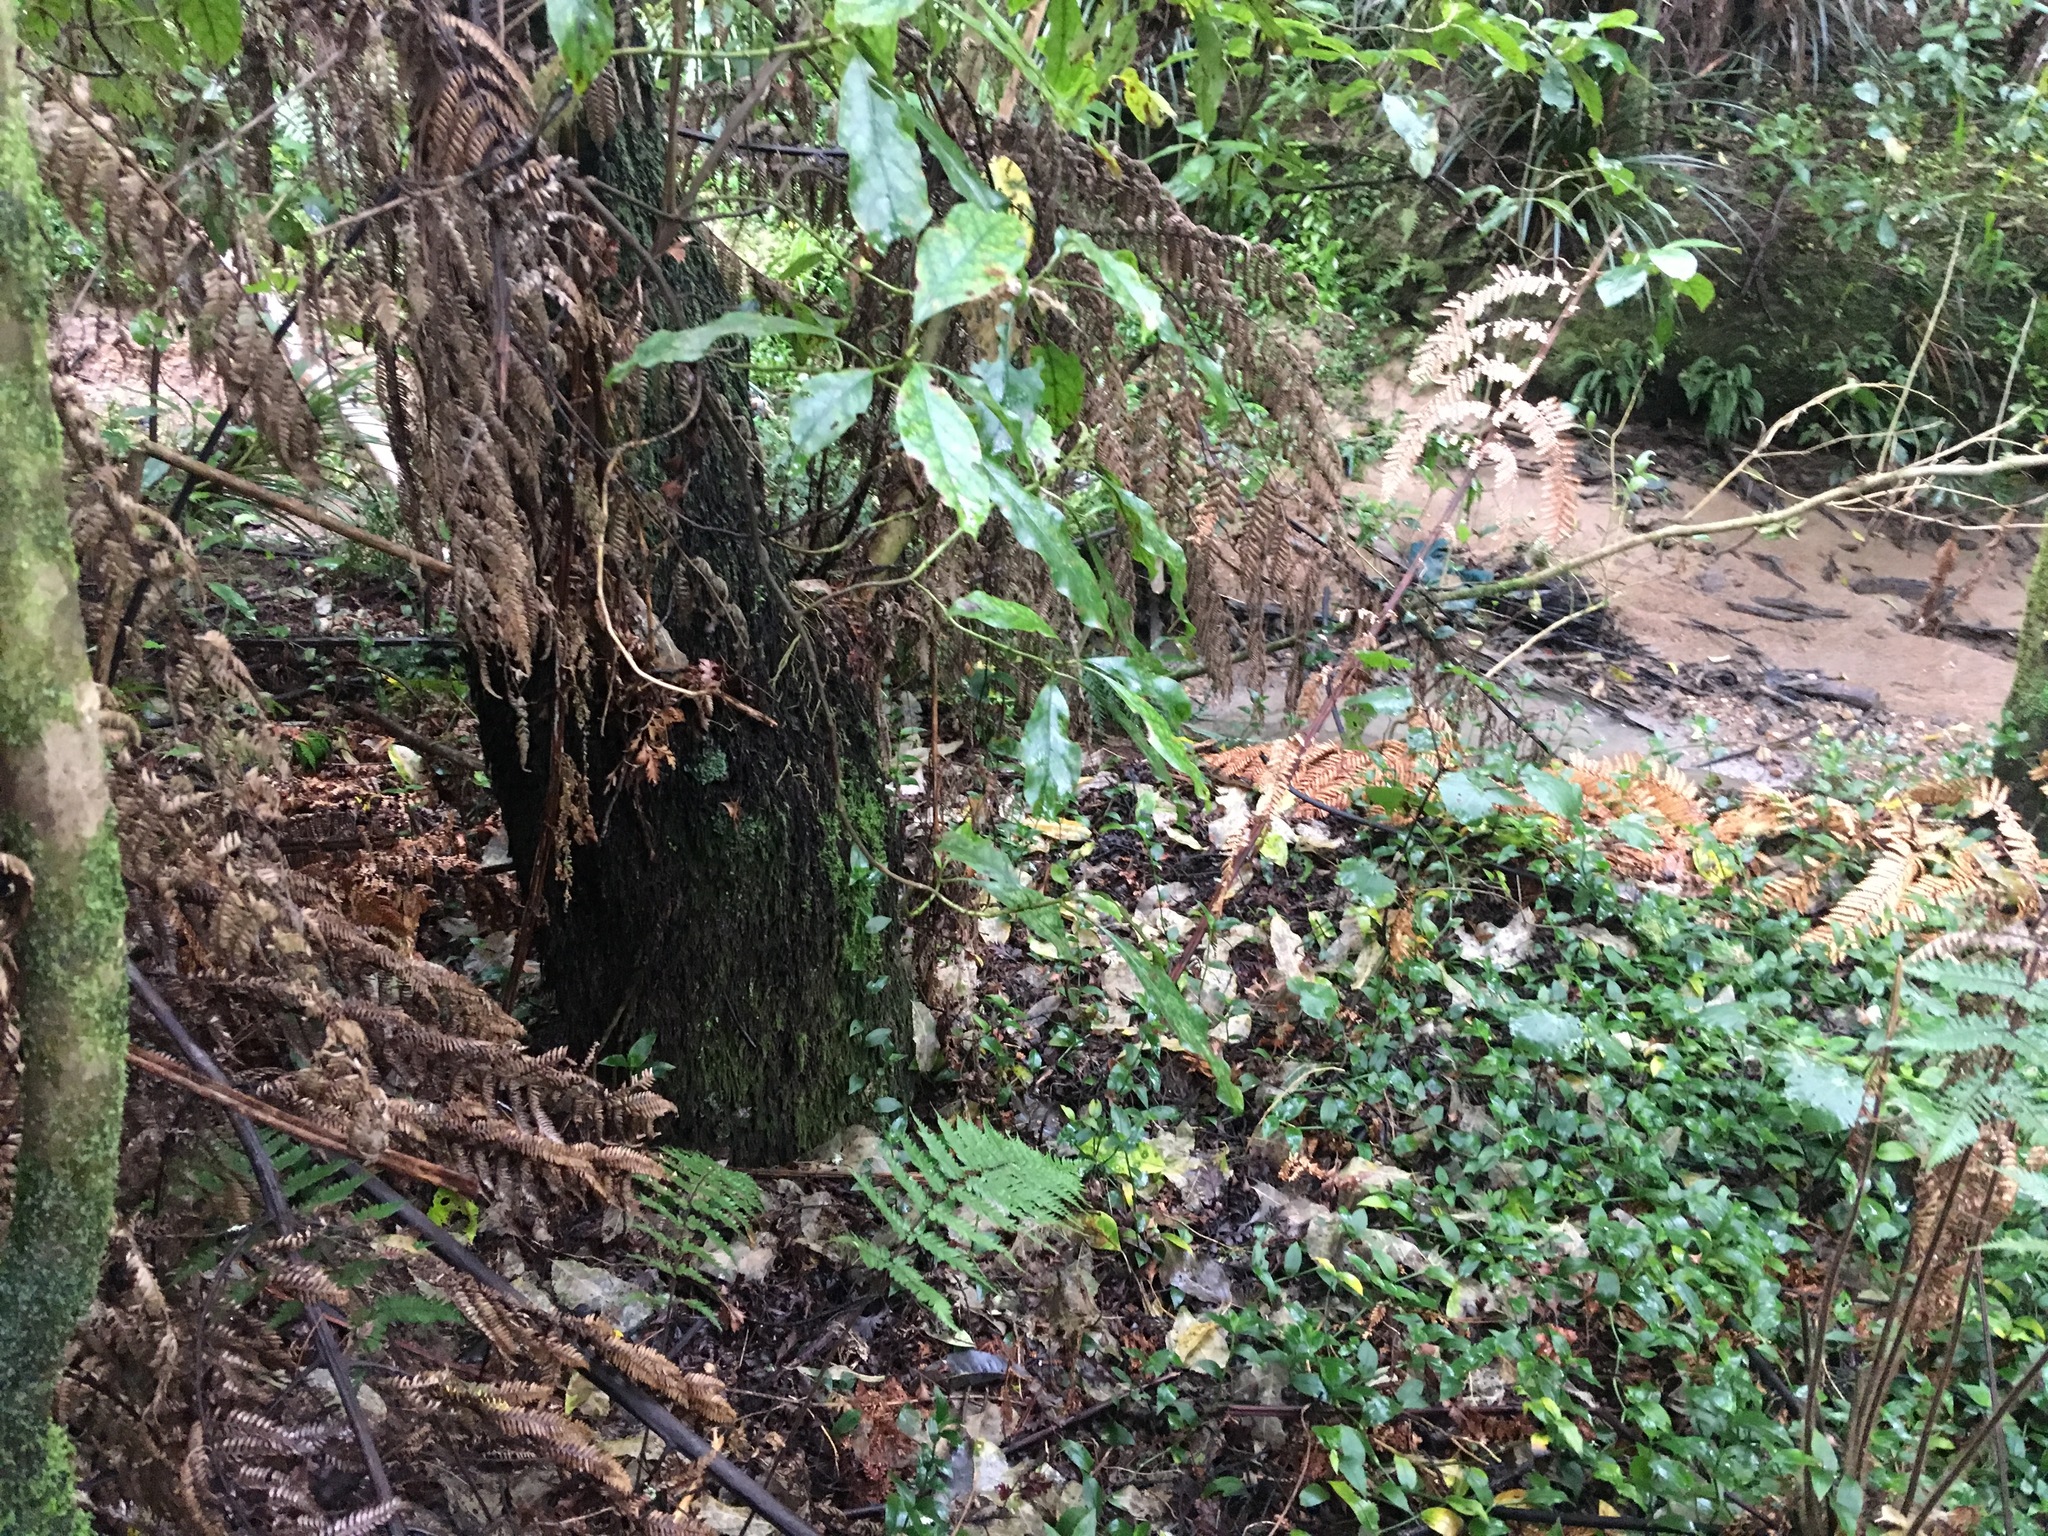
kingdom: Plantae
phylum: Tracheophyta
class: Liliopsida
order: Commelinales
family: Commelinaceae
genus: Tradescantia
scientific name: Tradescantia fluminensis
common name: Wandering-jew
